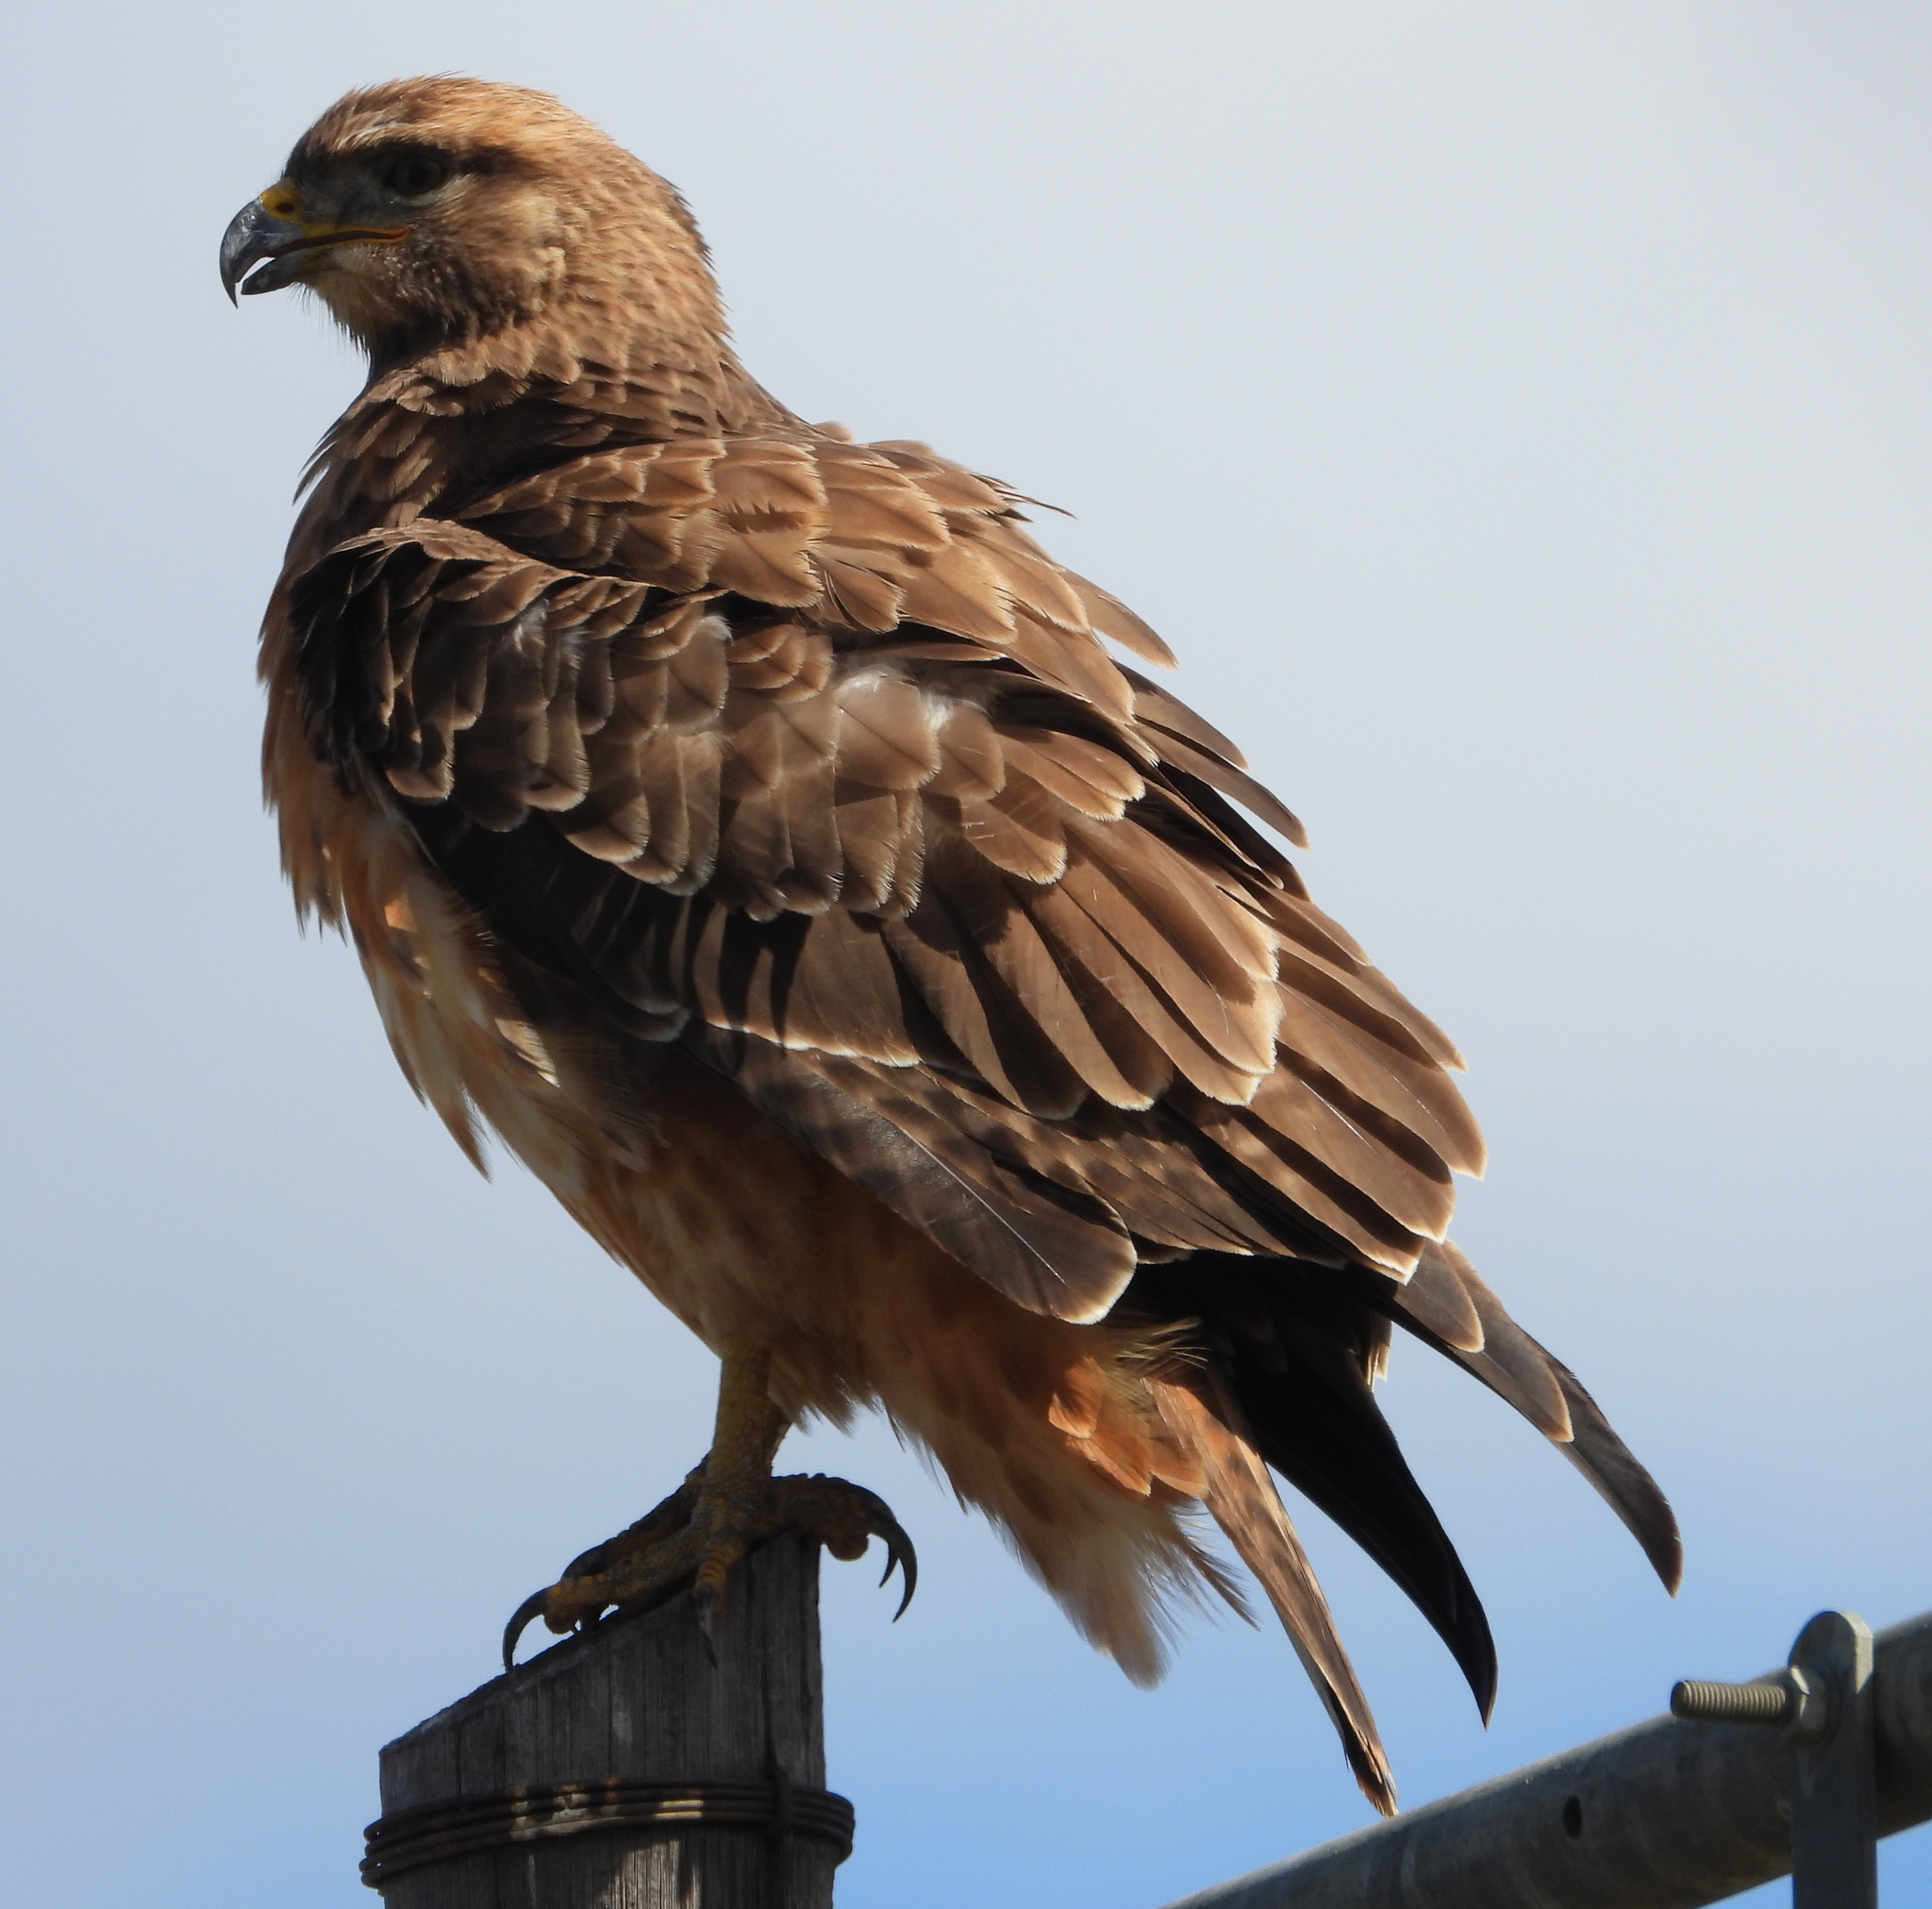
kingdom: Animalia
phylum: Chordata
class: Aves
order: Accipitriformes
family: Accipitridae
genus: Buteo
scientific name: Buteo buteo
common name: Common buzzard
